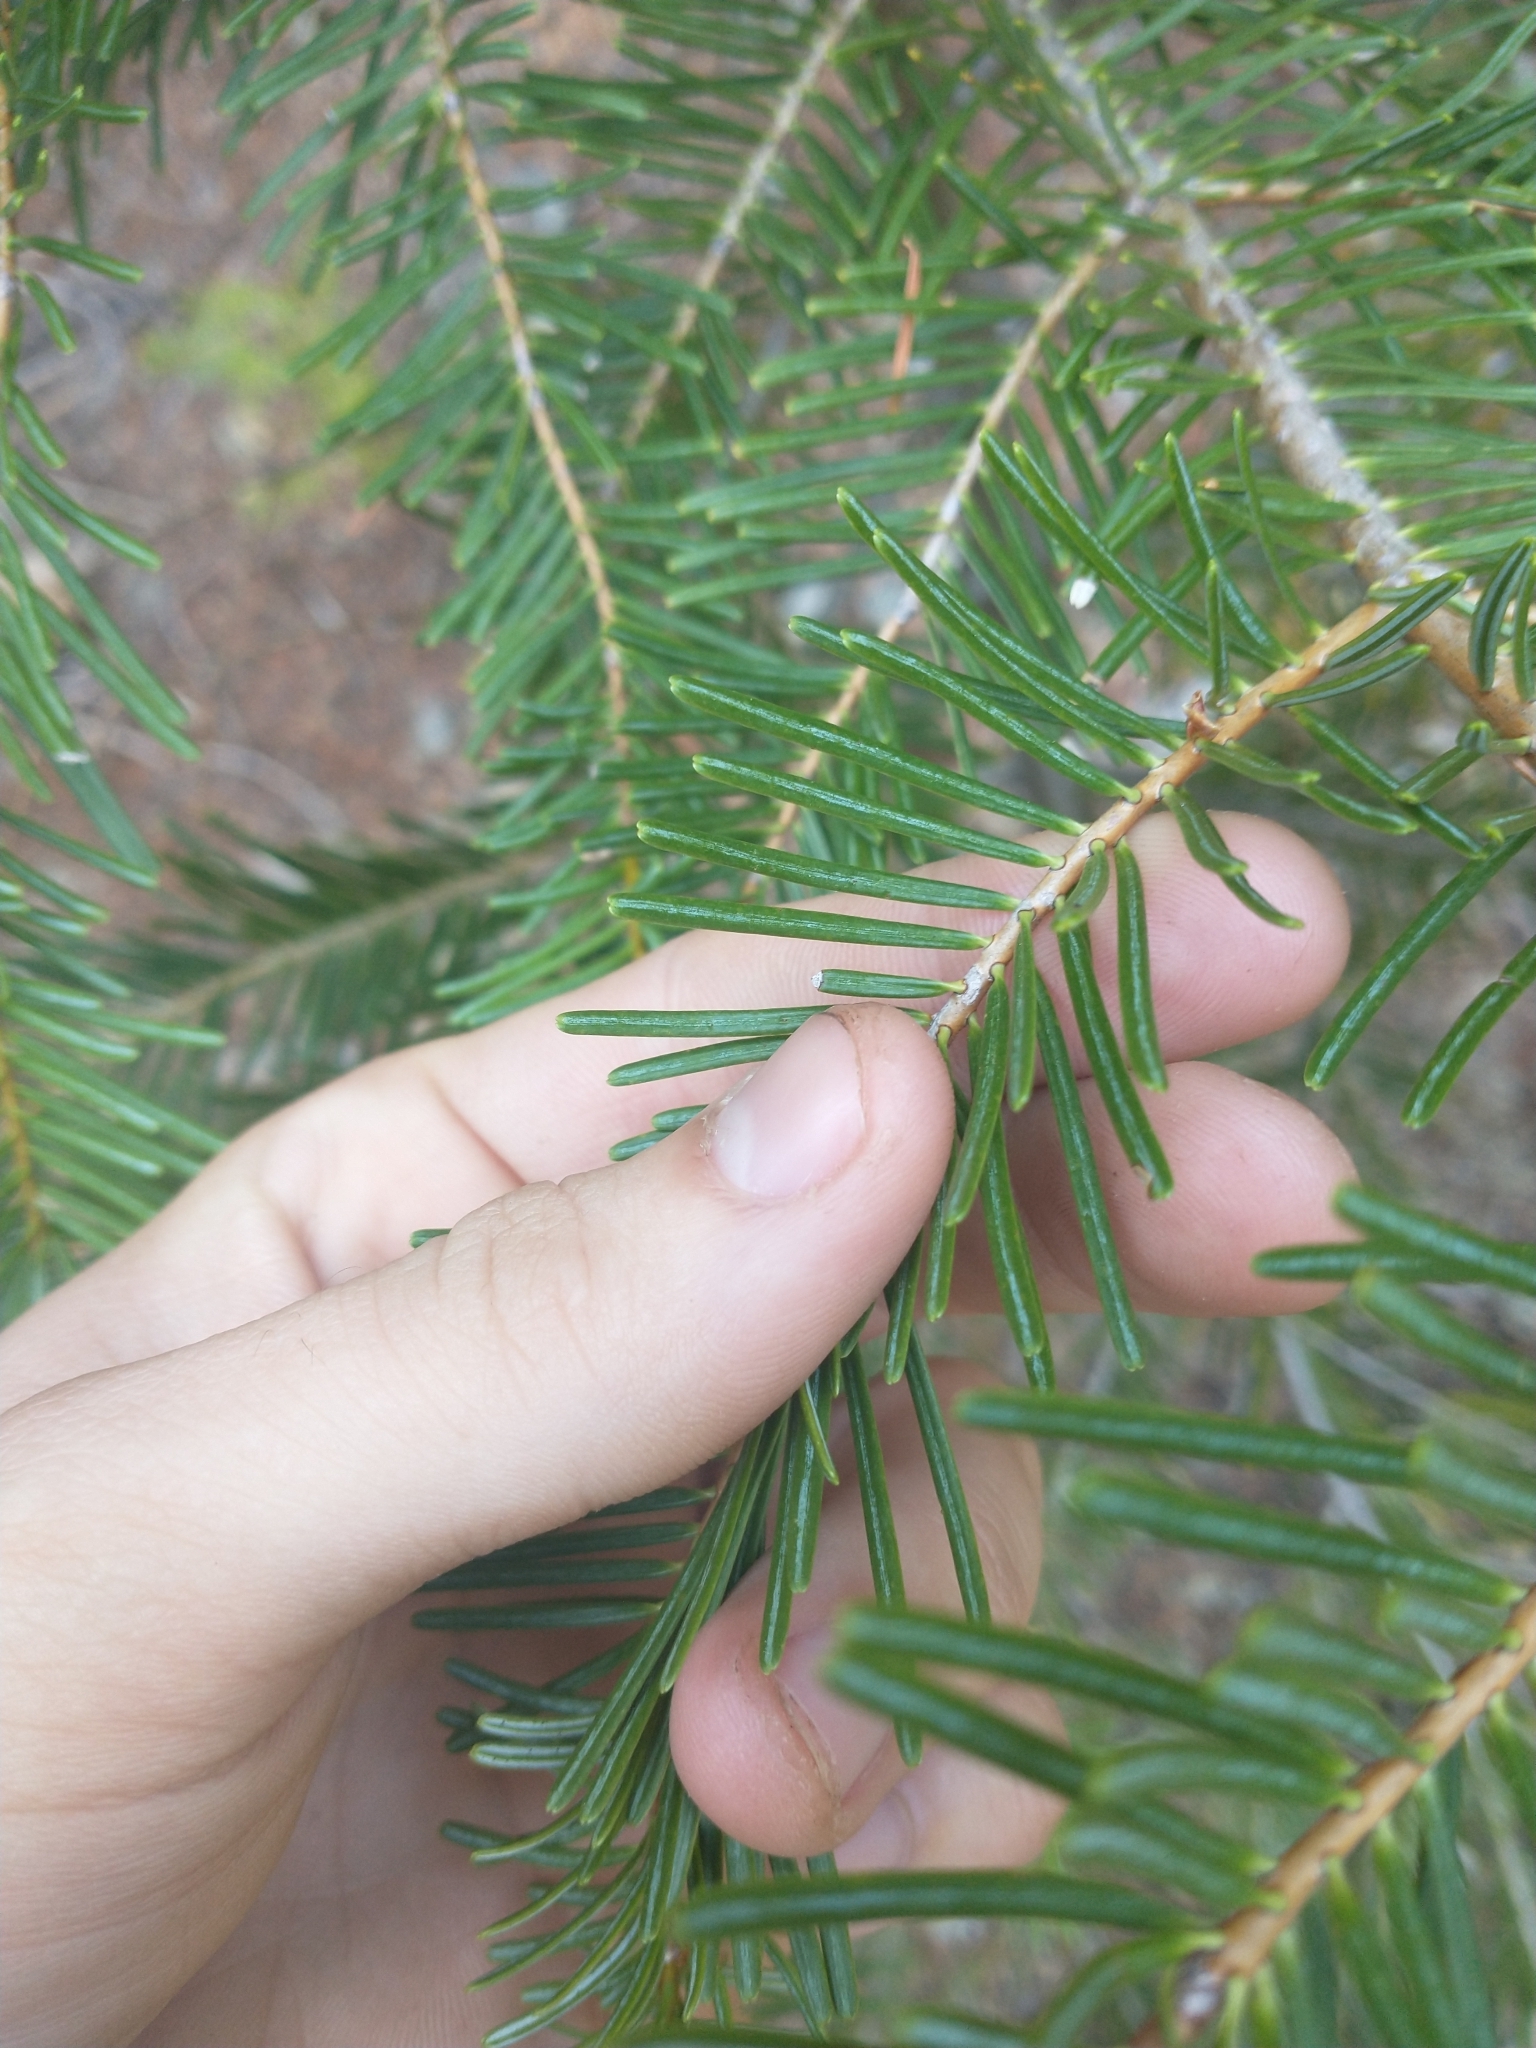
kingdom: Plantae
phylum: Tracheophyta
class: Pinopsida
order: Pinales
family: Pinaceae
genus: Abies
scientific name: Abies concolor
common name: Colorado fir
